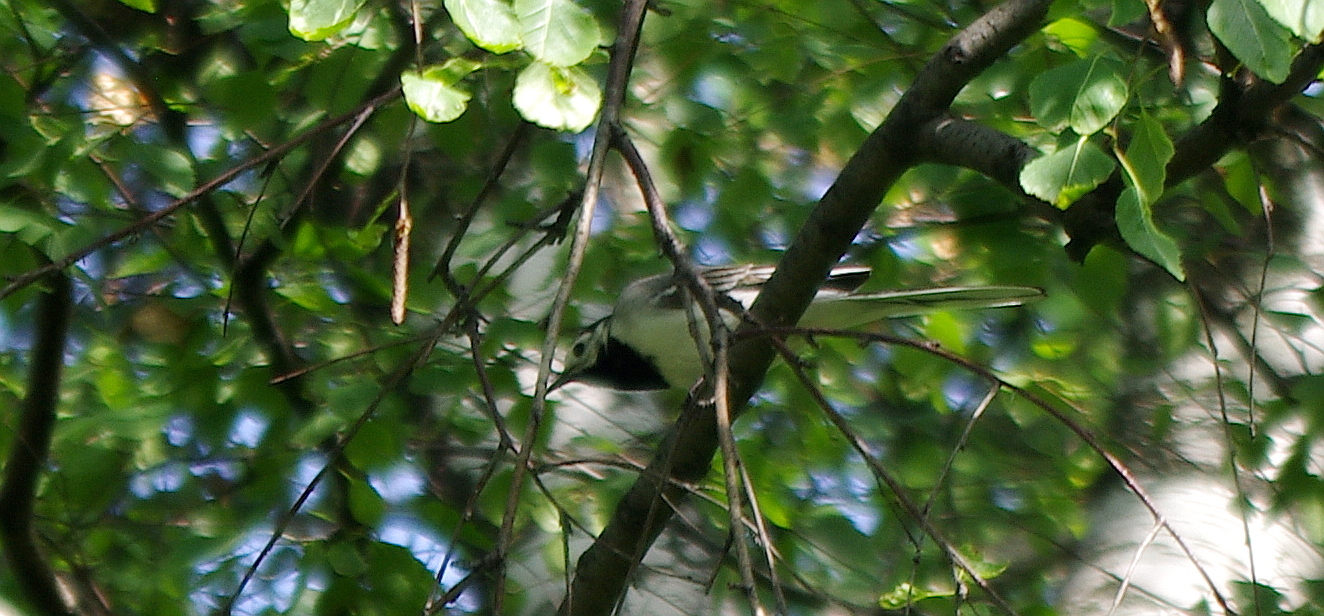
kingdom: Animalia
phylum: Chordata
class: Aves
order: Passeriformes
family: Motacillidae
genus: Motacilla
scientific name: Motacilla alba
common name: White wagtail
